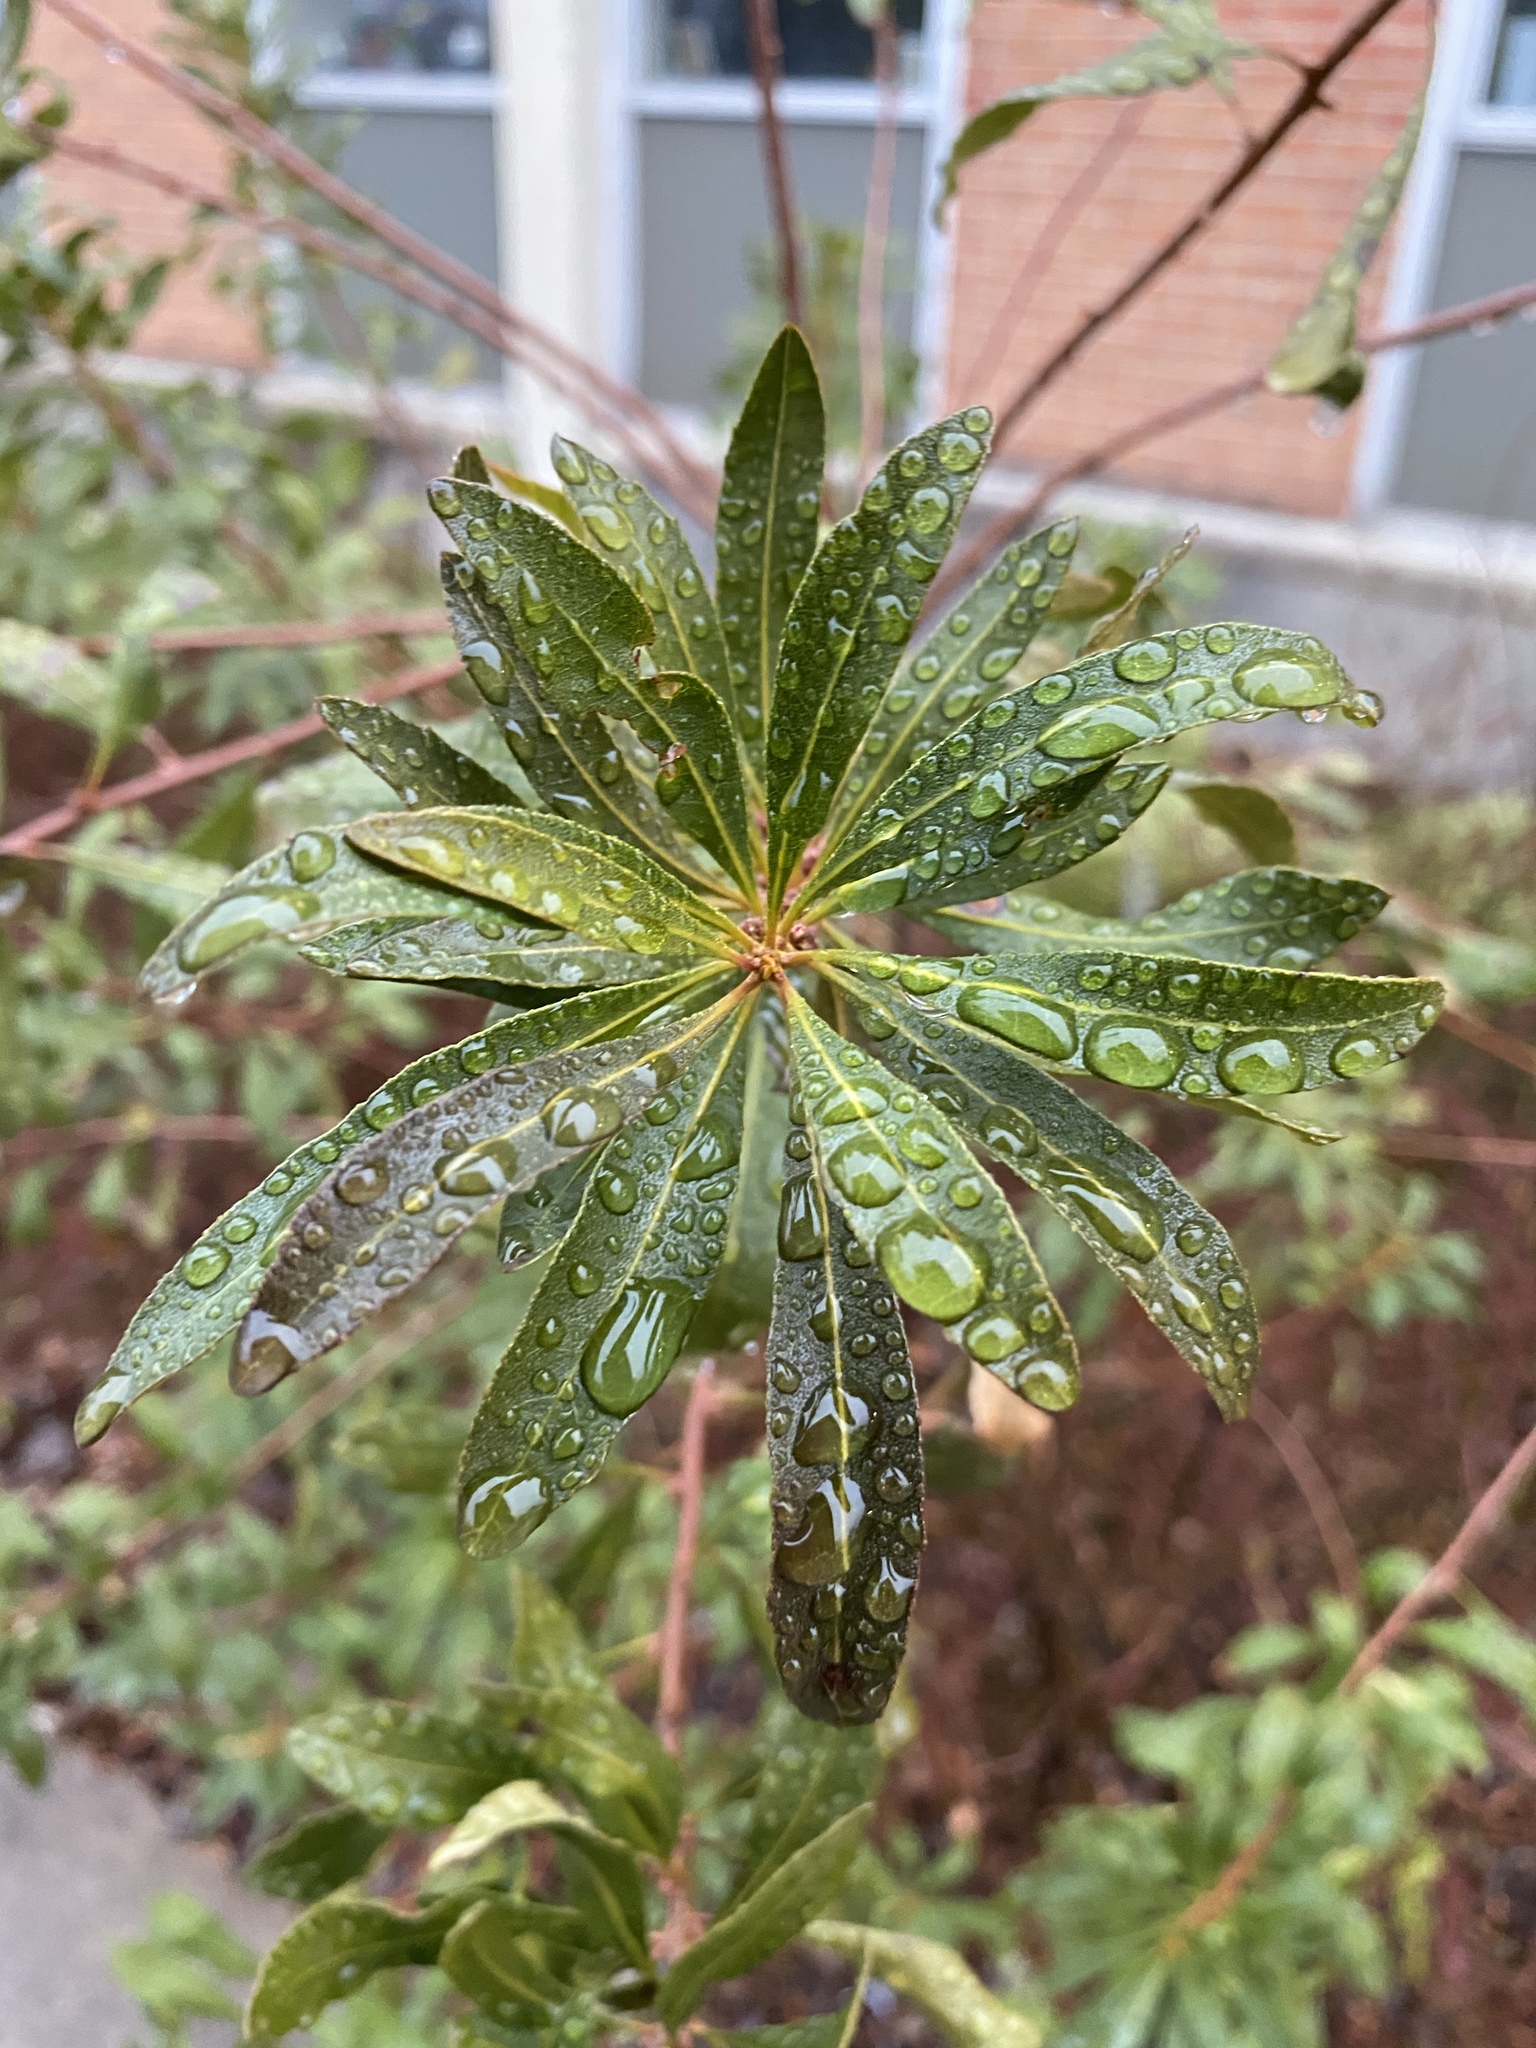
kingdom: Plantae
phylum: Tracheophyta
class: Magnoliopsida
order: Fagales
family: Myricaceae
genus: Morella
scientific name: Morella cerifera
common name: Wax myrtle
